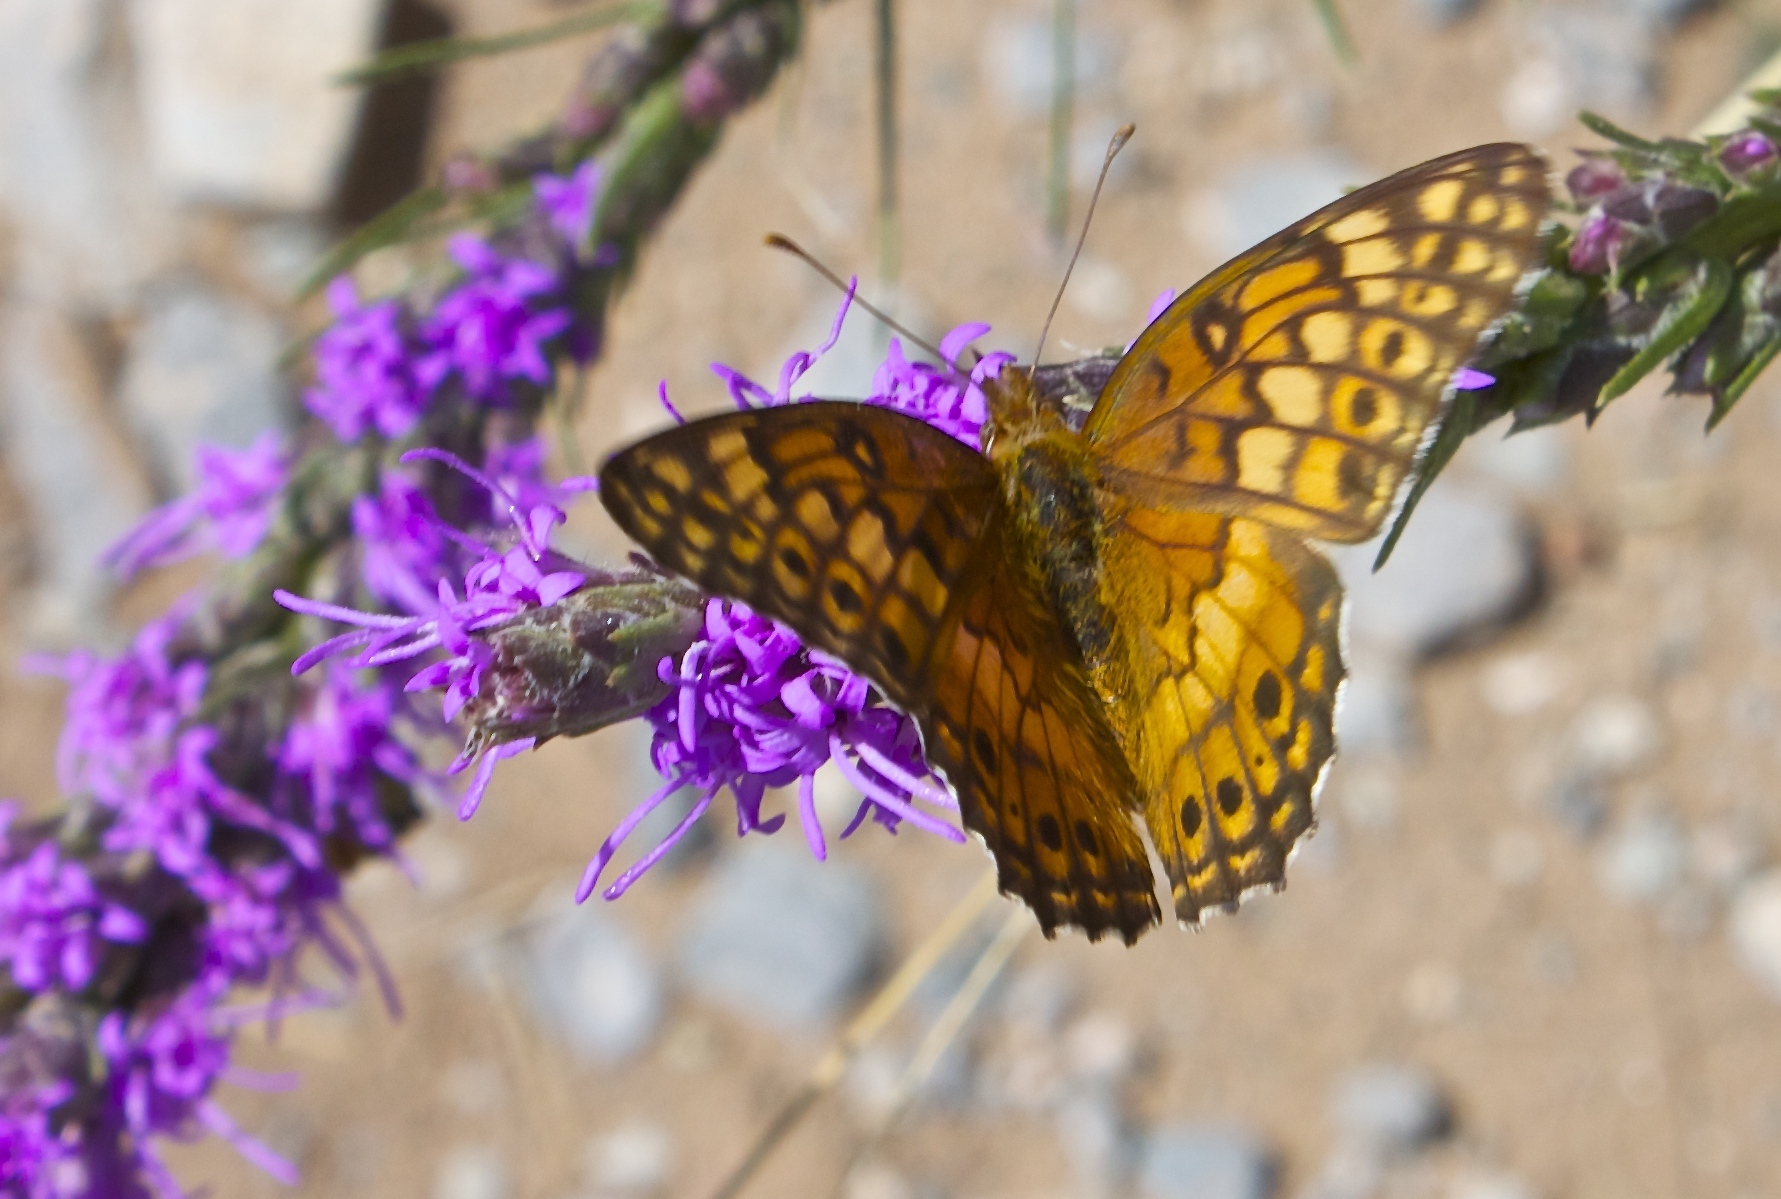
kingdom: Animalia
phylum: Arthropoda
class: Insecta
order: Lepidoptera
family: Nymphalidae
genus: Euptoieta
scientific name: Euptoieta claudia
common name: Variegated fritillary
